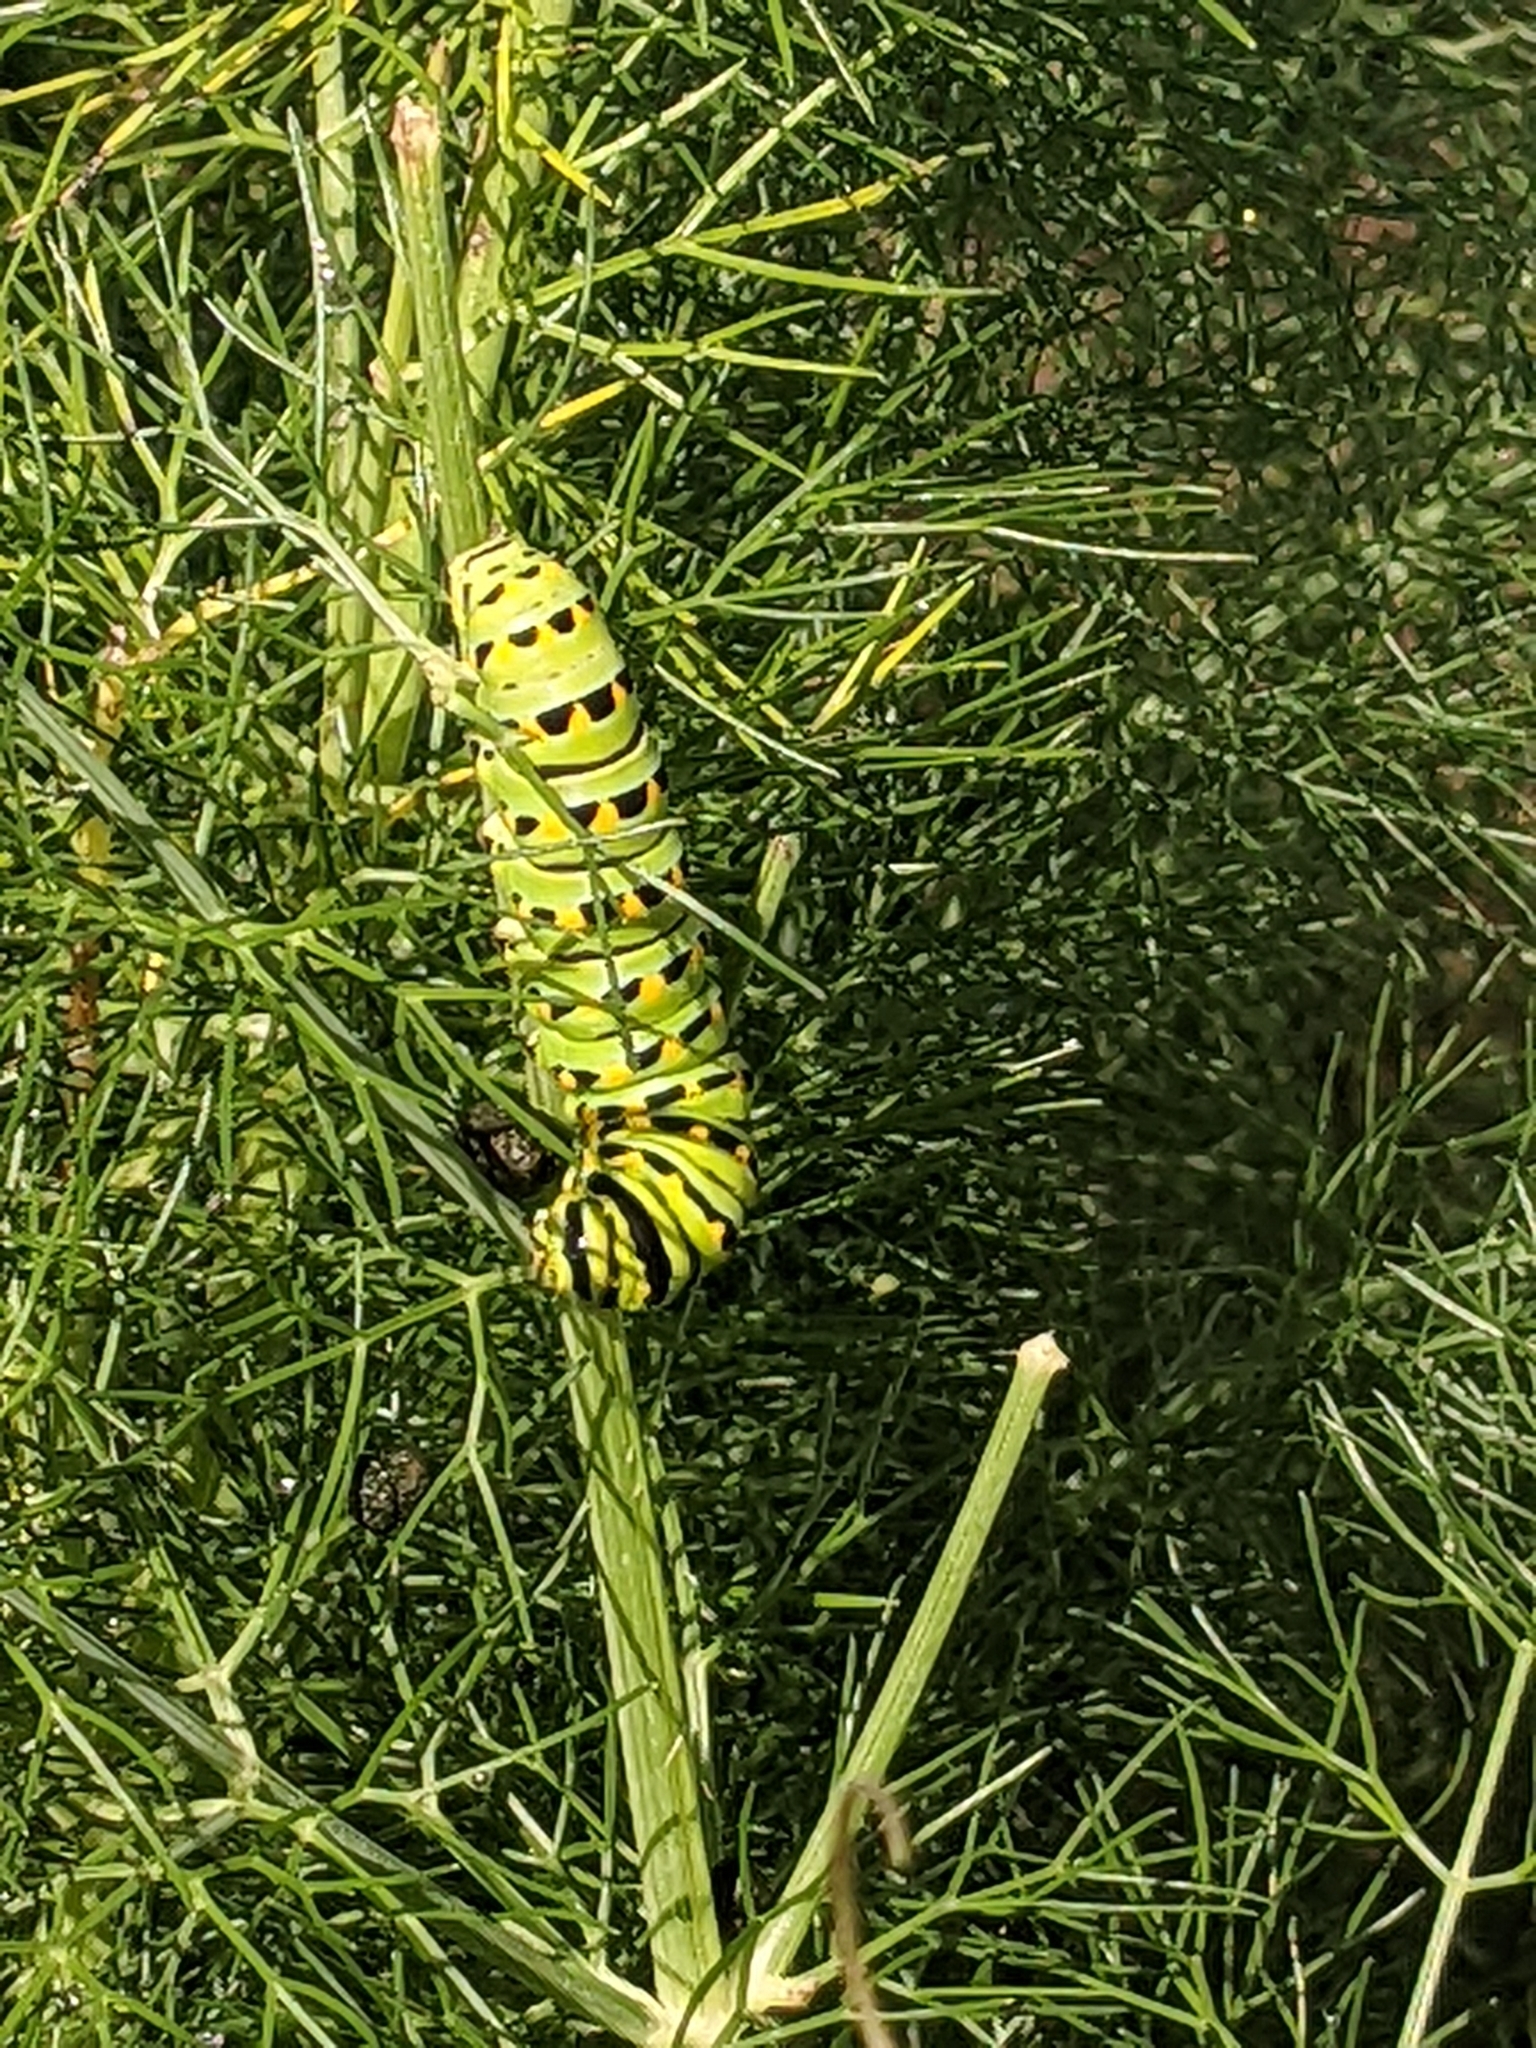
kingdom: Animalia
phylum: Arthropoda
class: Insecta
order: Lepidoptera
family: Papilionidae
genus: Papilio
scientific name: Papilio zelicaon
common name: Anise swallowtail
